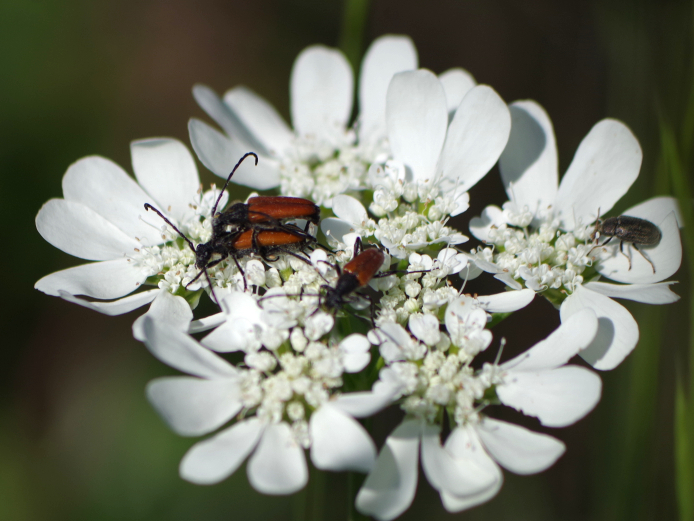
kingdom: Animalia
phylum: Arthropoda
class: Insecta
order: Coleoptera
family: Cerambycidae
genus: Paracorymbia
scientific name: Paracorymbia pallens
